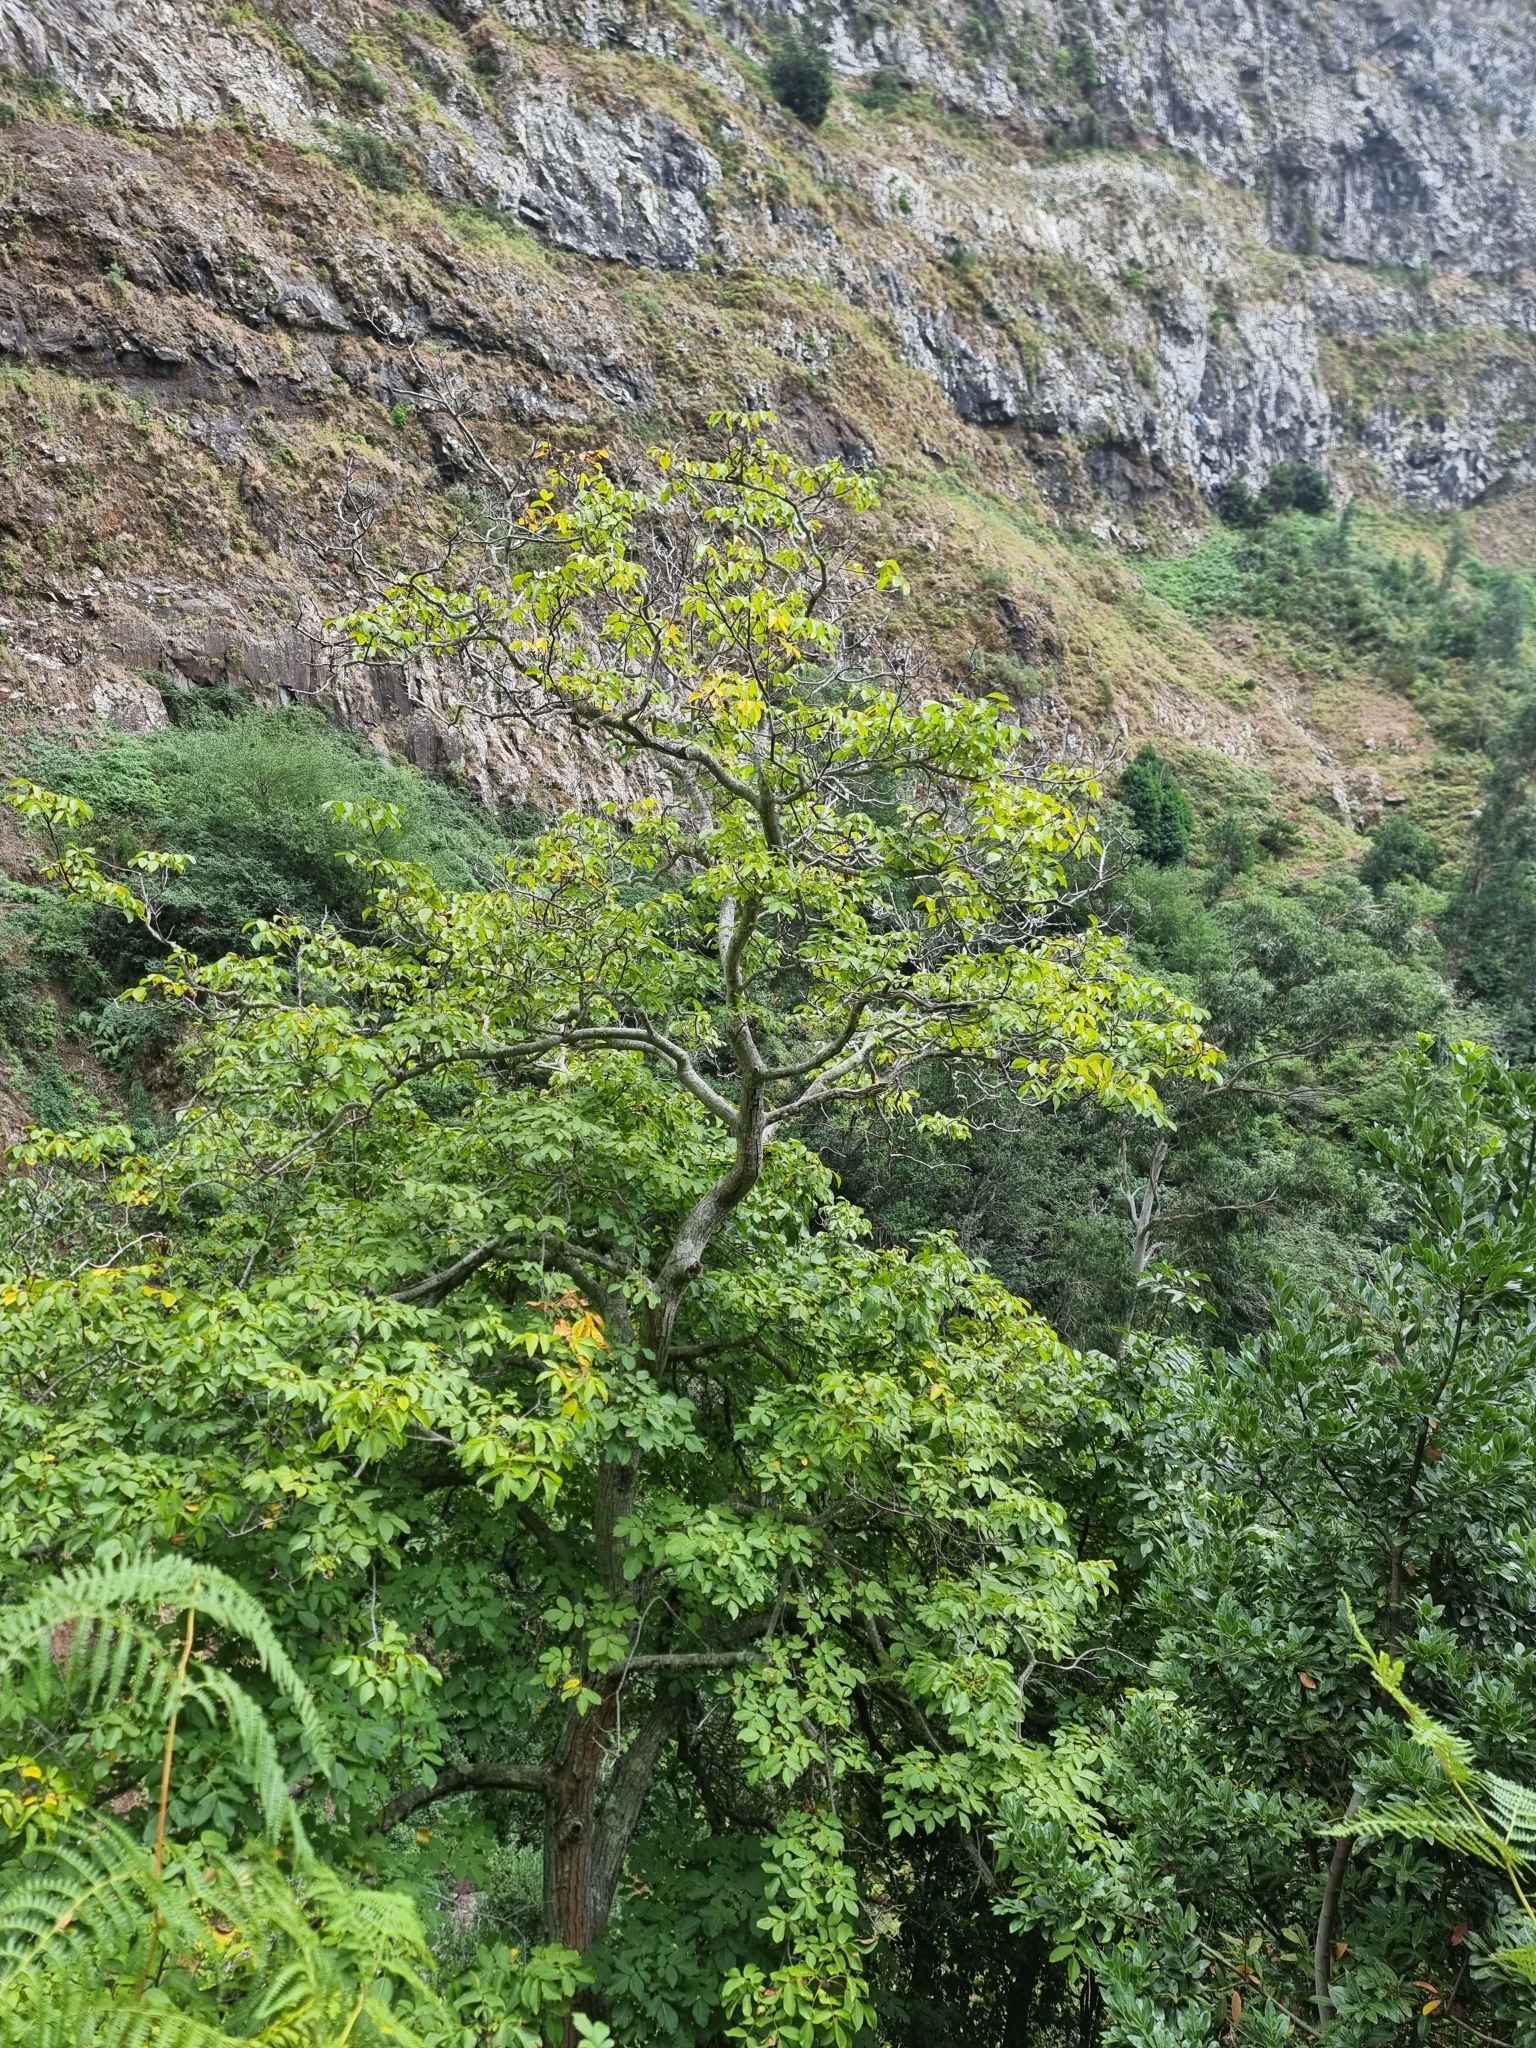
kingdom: Plantae
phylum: Tracheophyta
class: Magnoliopsida
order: Fagales
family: Juglandaceae
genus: Juglans
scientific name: Juglans regia
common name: Walnut
